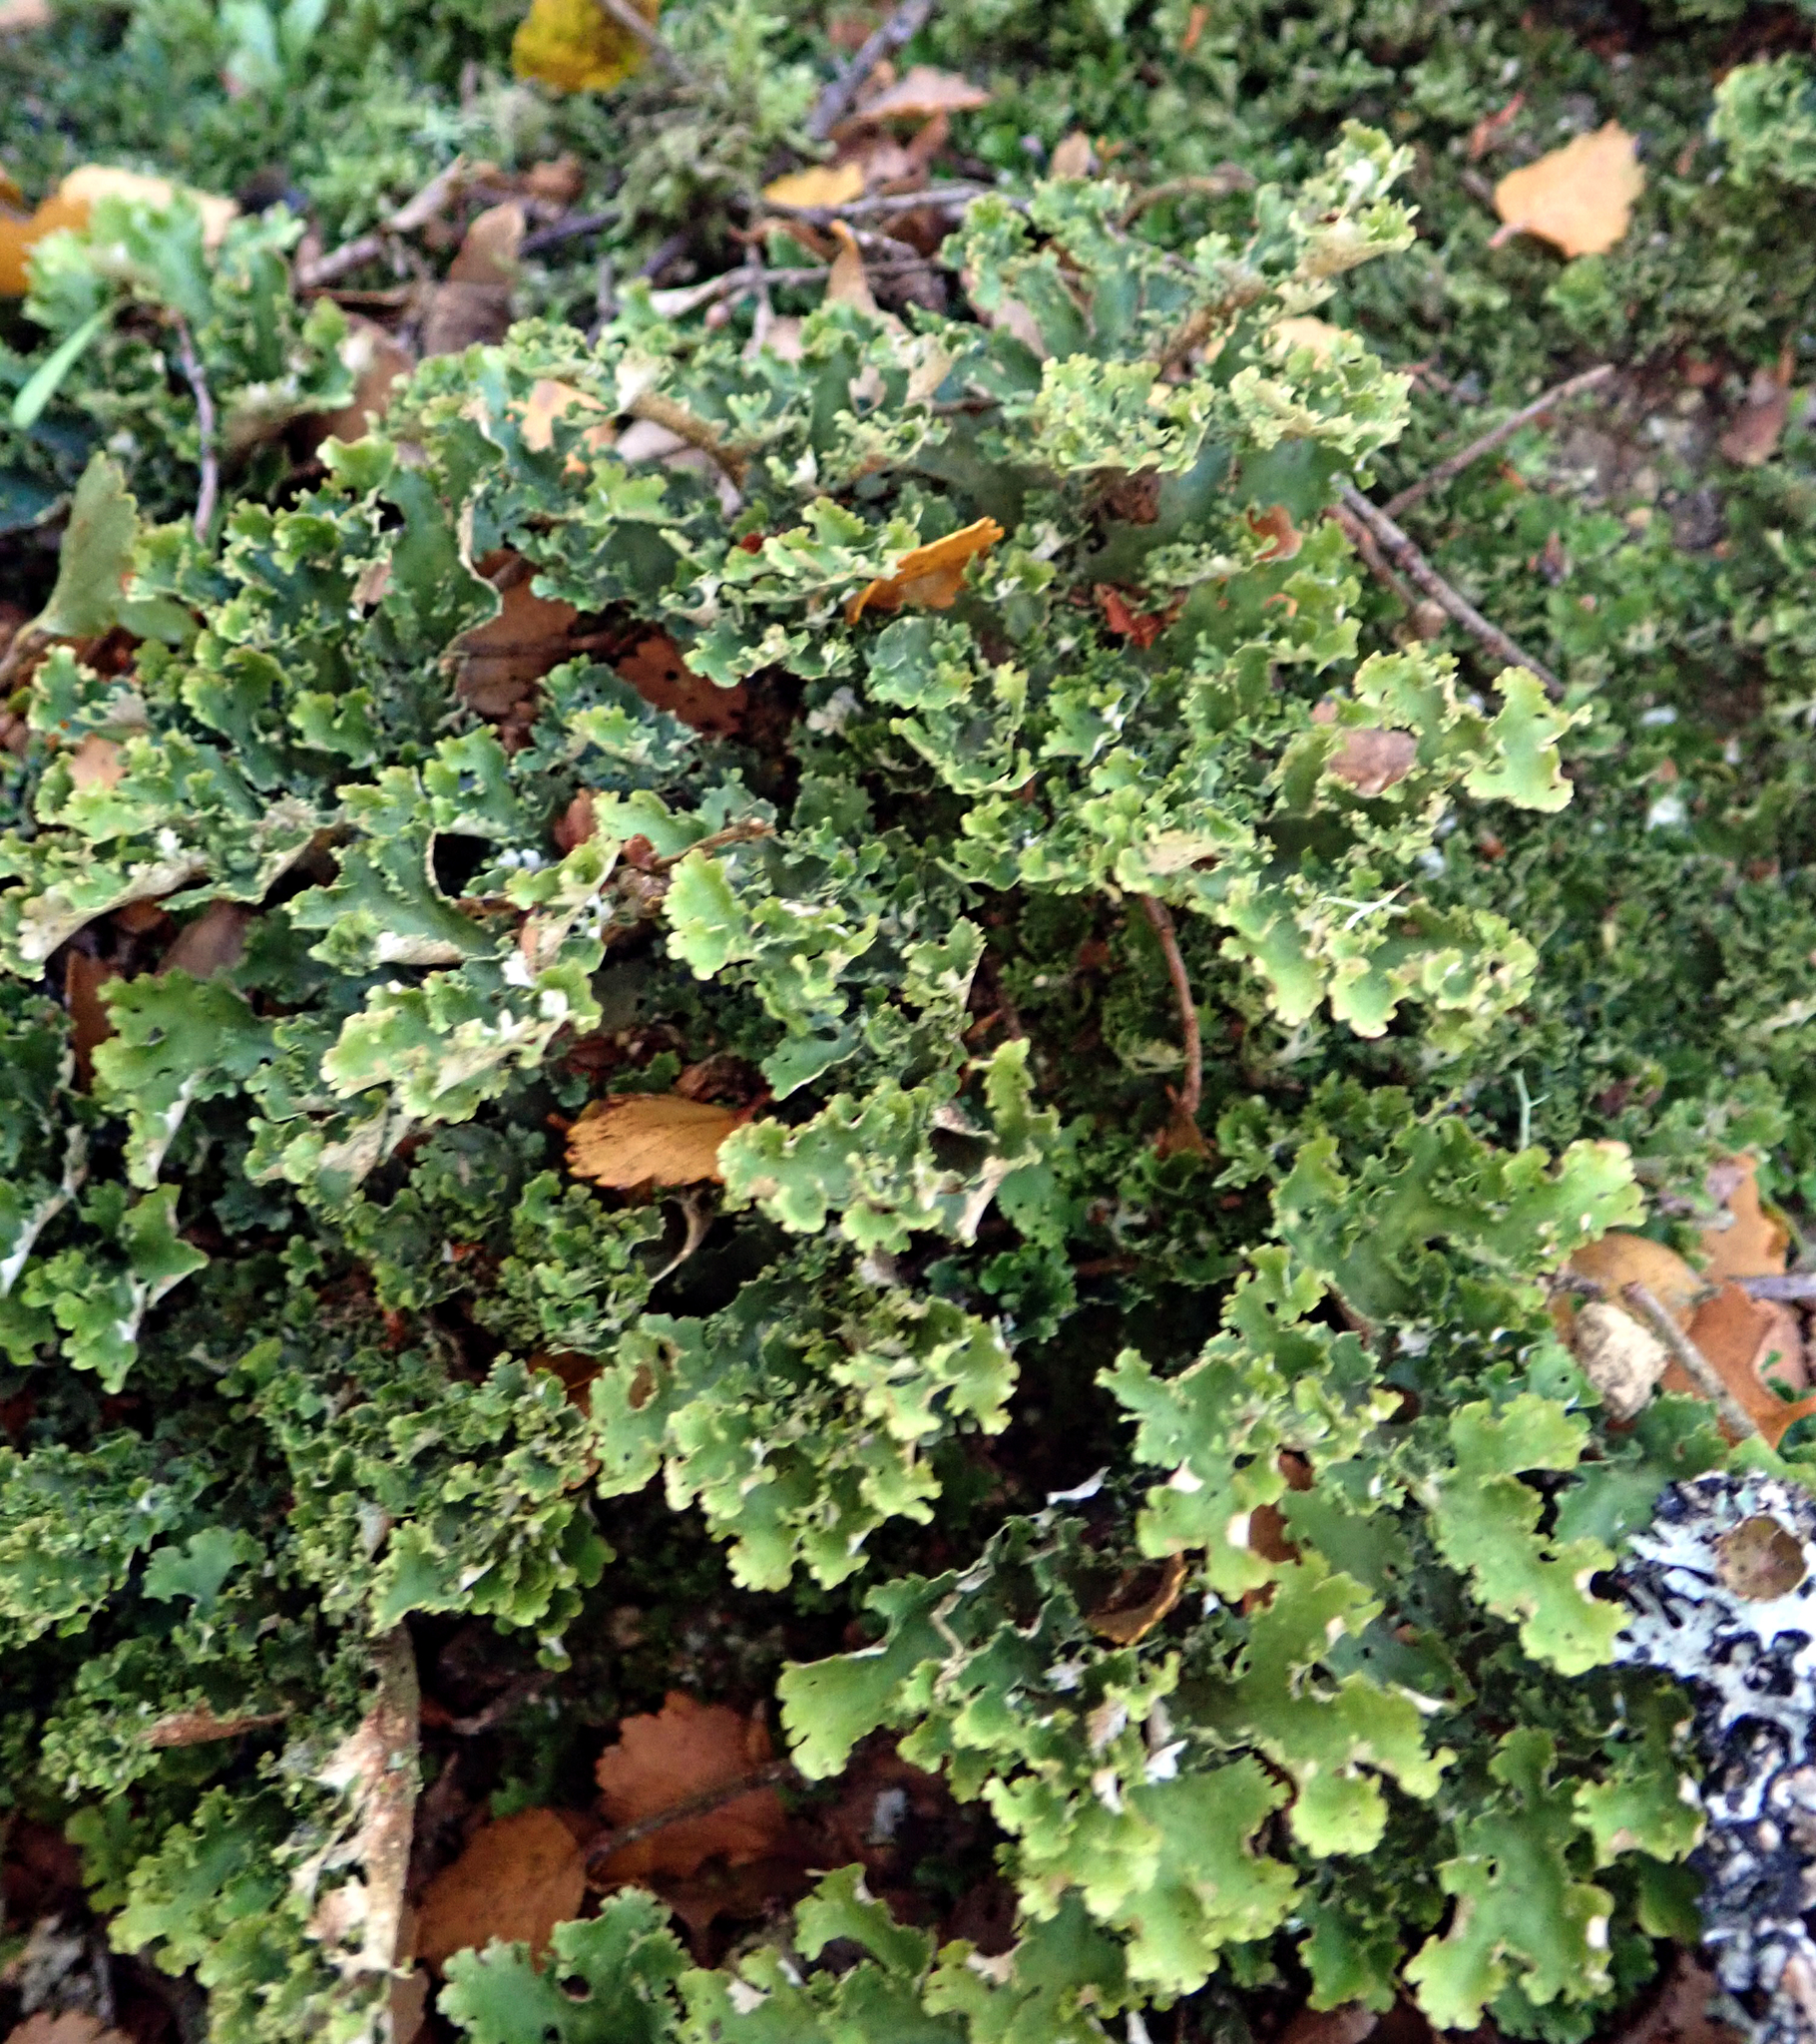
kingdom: Fungi
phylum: Ascomycota
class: Lecanoromycetes
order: Peltigerales
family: Lobariaceae
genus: Sticta
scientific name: Sticta filix
